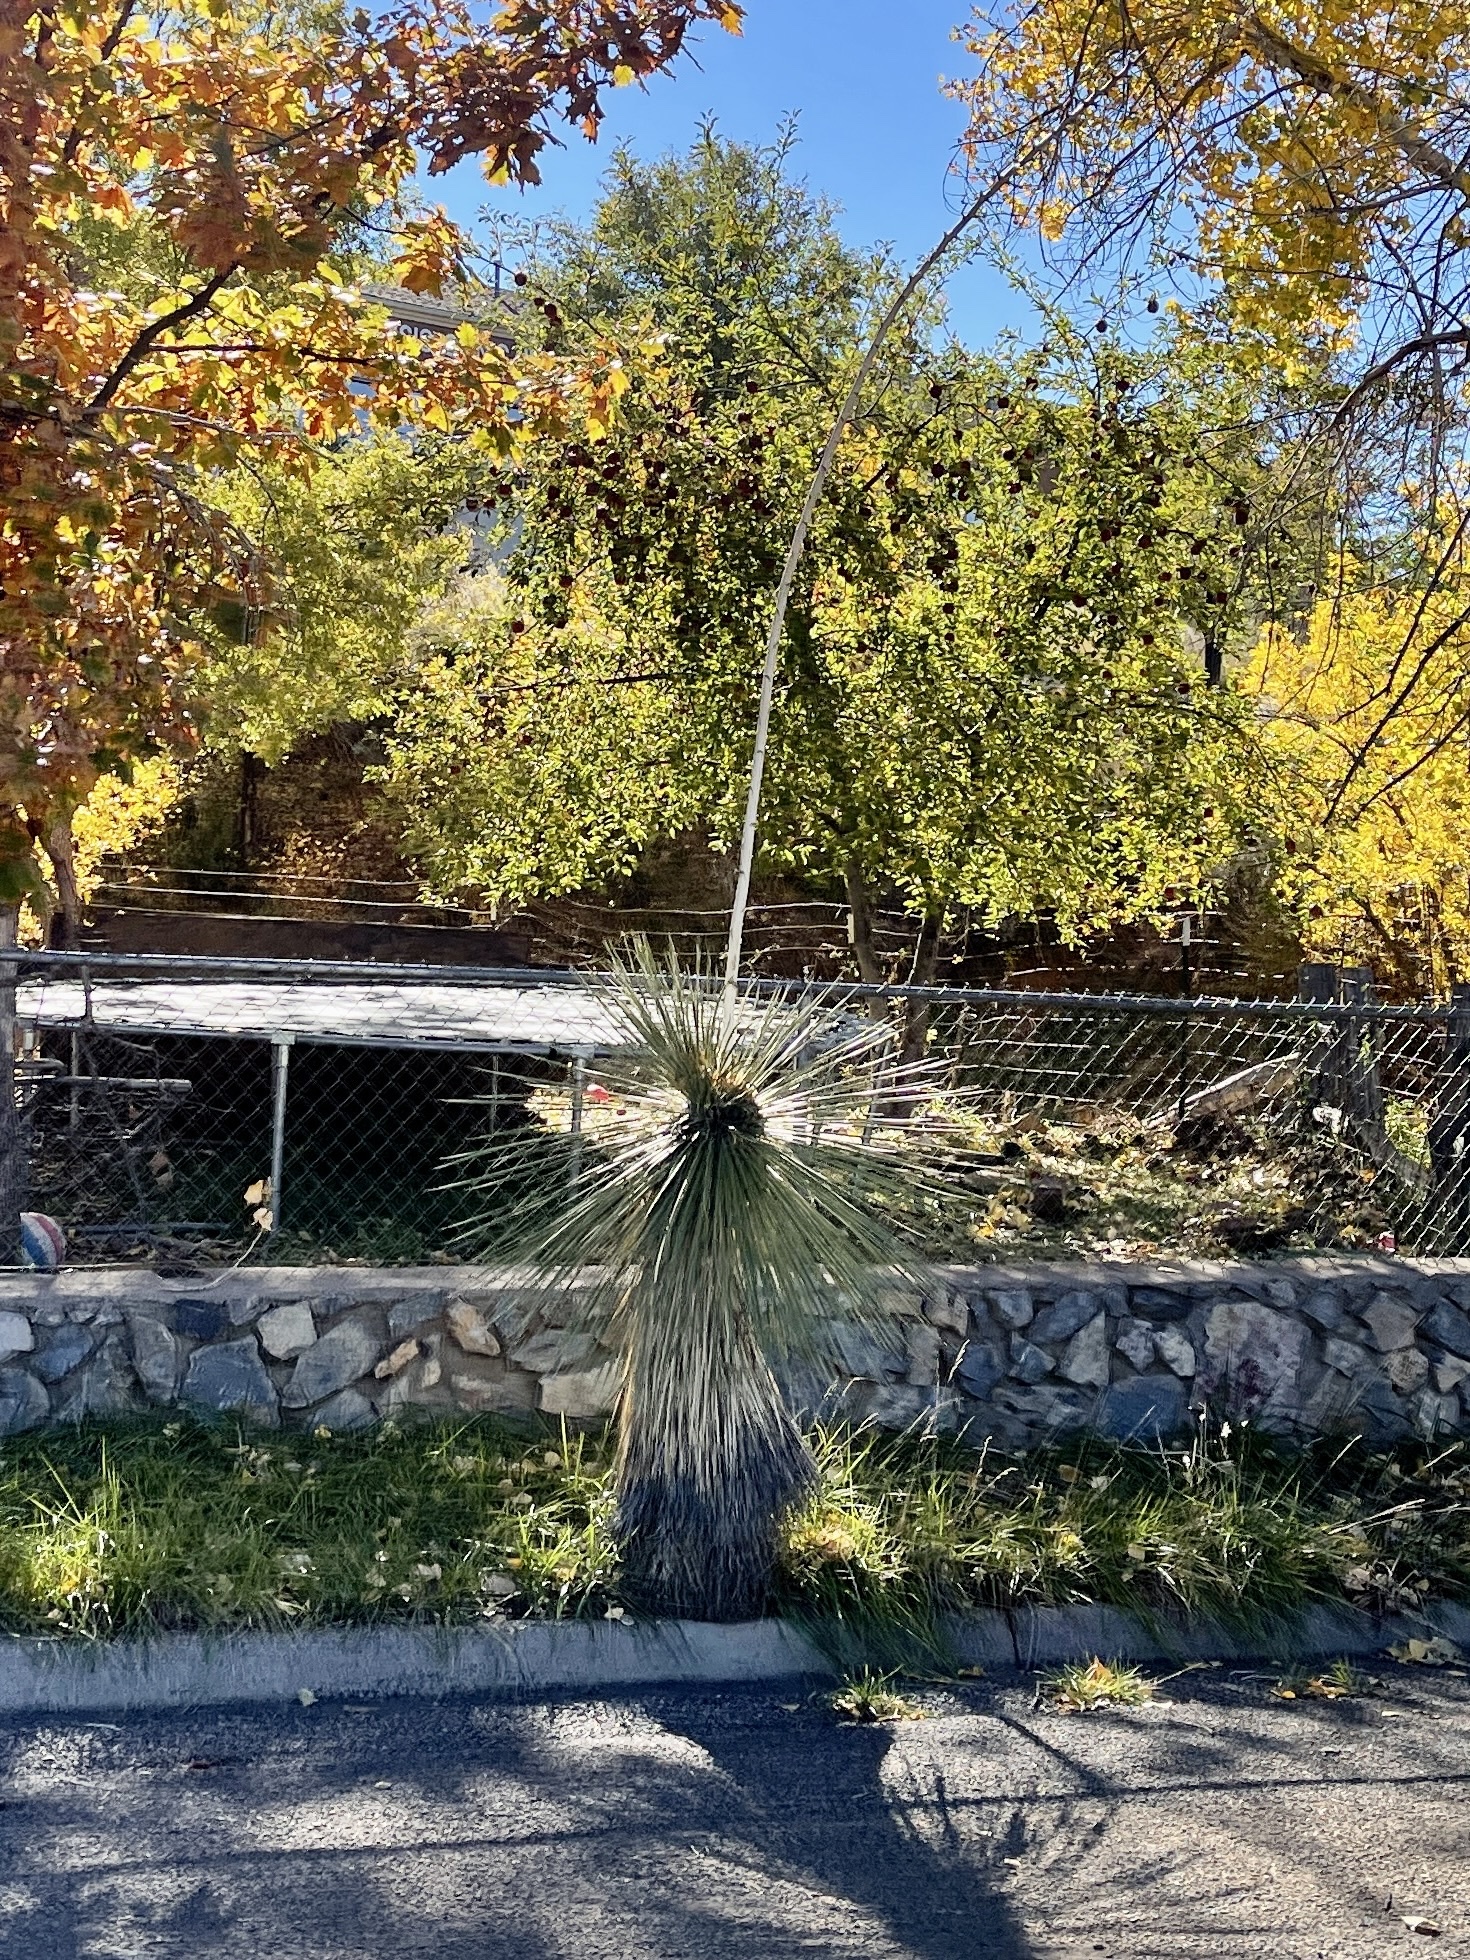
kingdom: Plantae
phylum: Tracheophyta
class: Liliopsida
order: Asparagales
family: Asparagaceae
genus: Yucca
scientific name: Yucca elata
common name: Palmella
